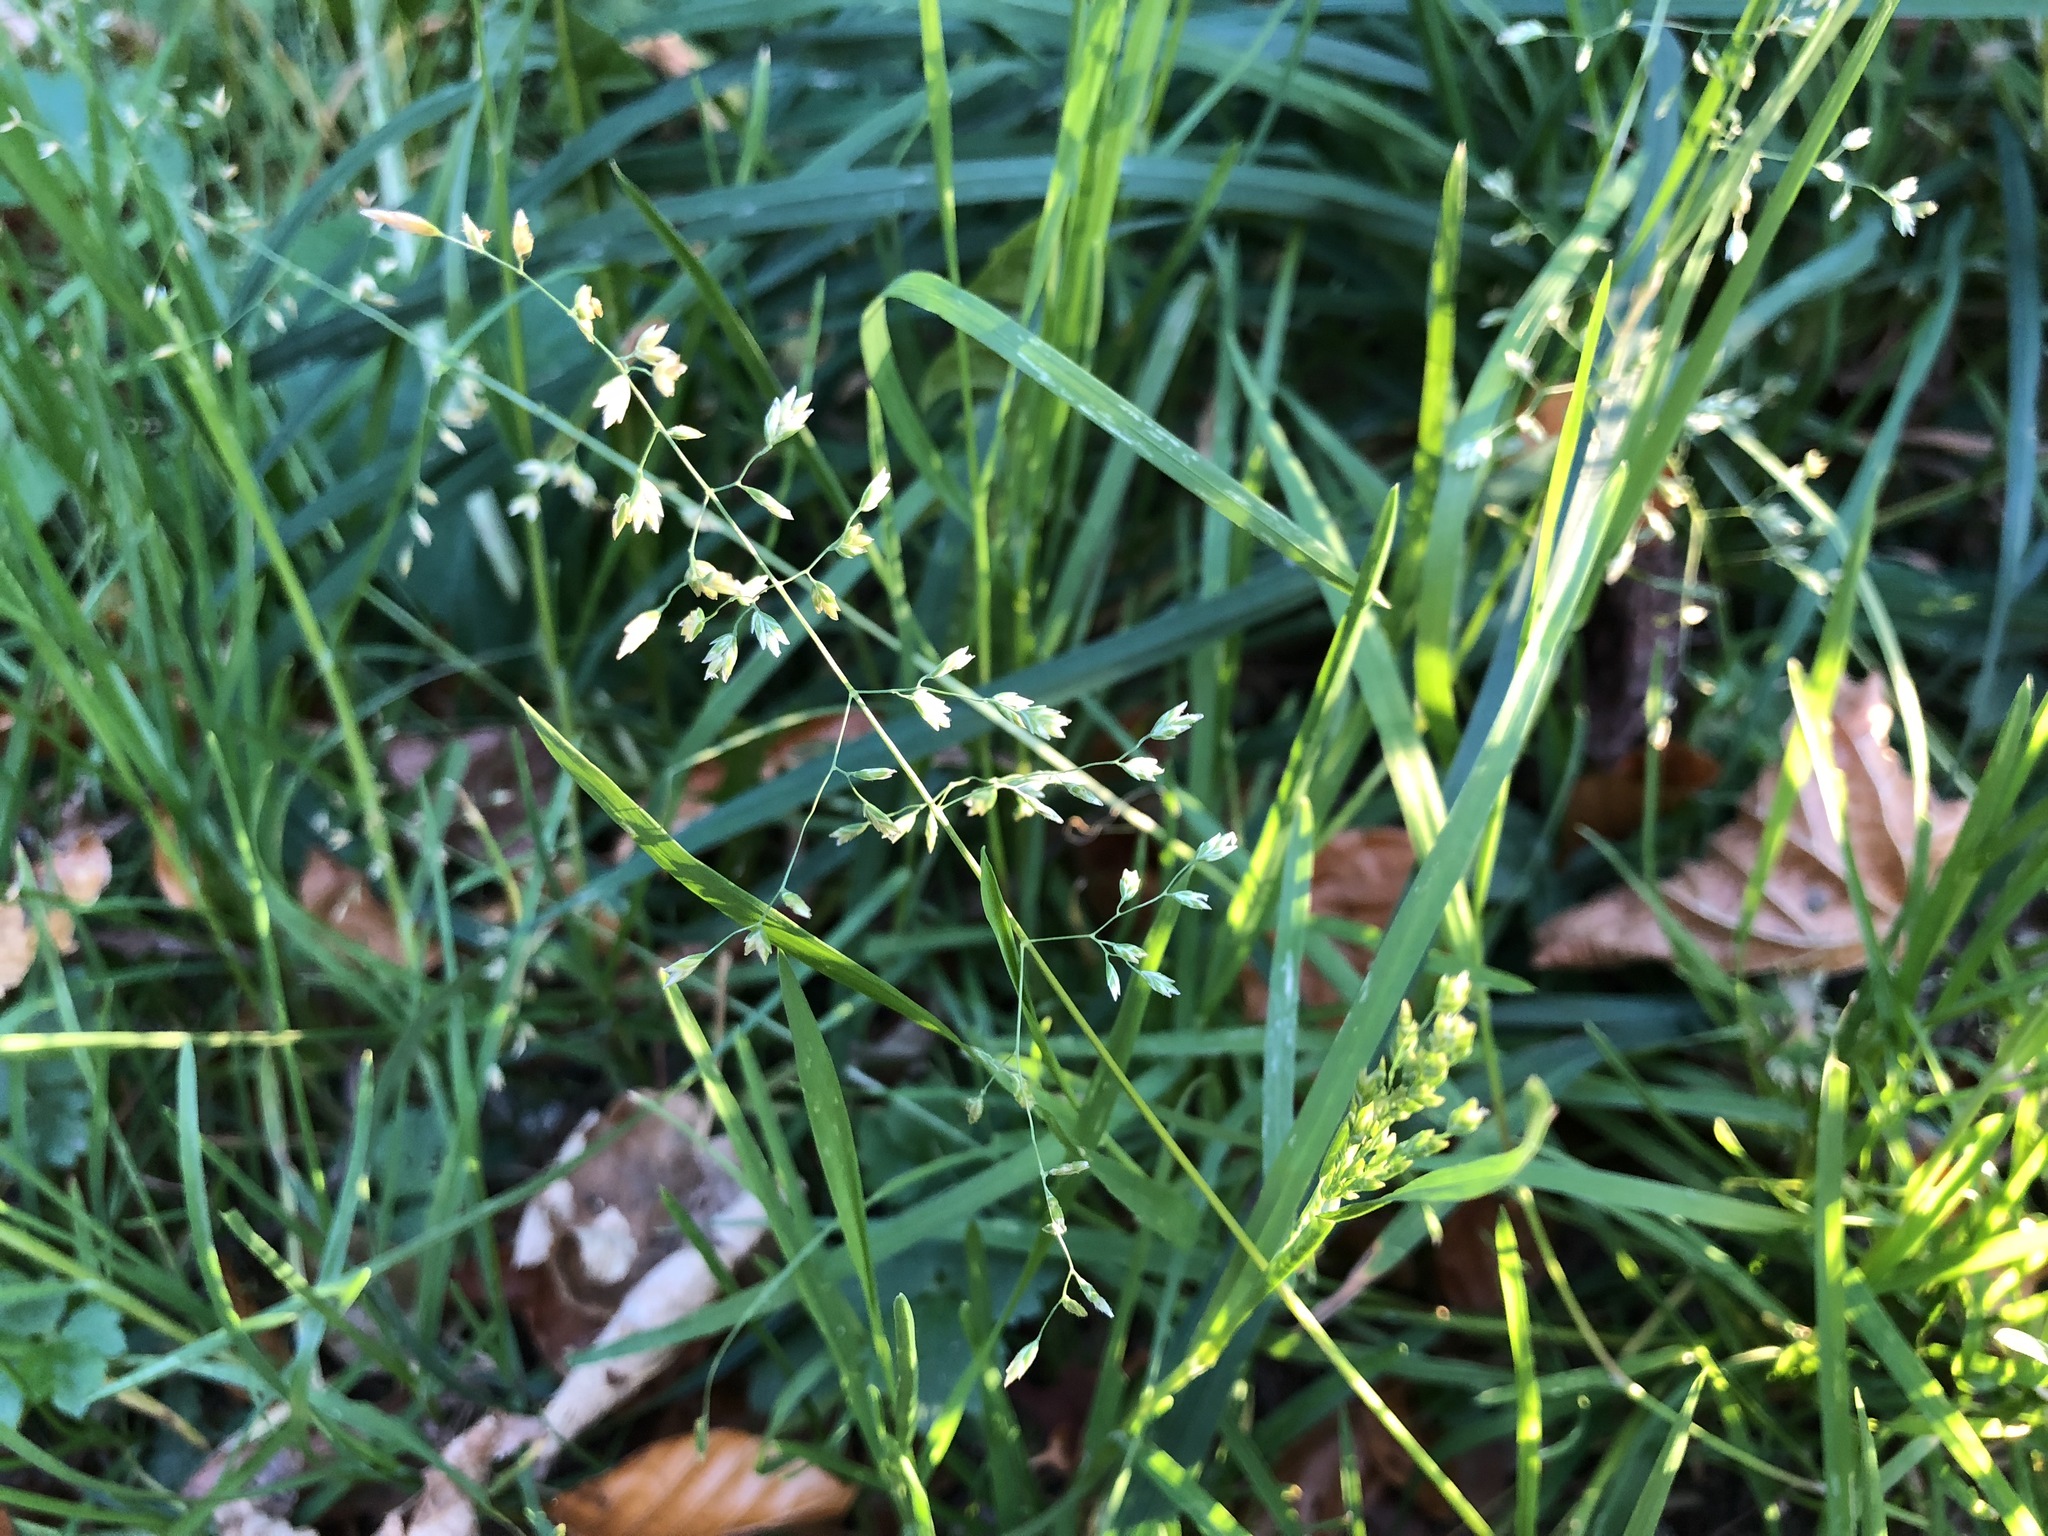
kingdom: Plantae
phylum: Tracheophyta
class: Liliopsida
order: Poales
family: Poaceae
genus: Poa
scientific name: Poa annua
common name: Annual bluegrass
